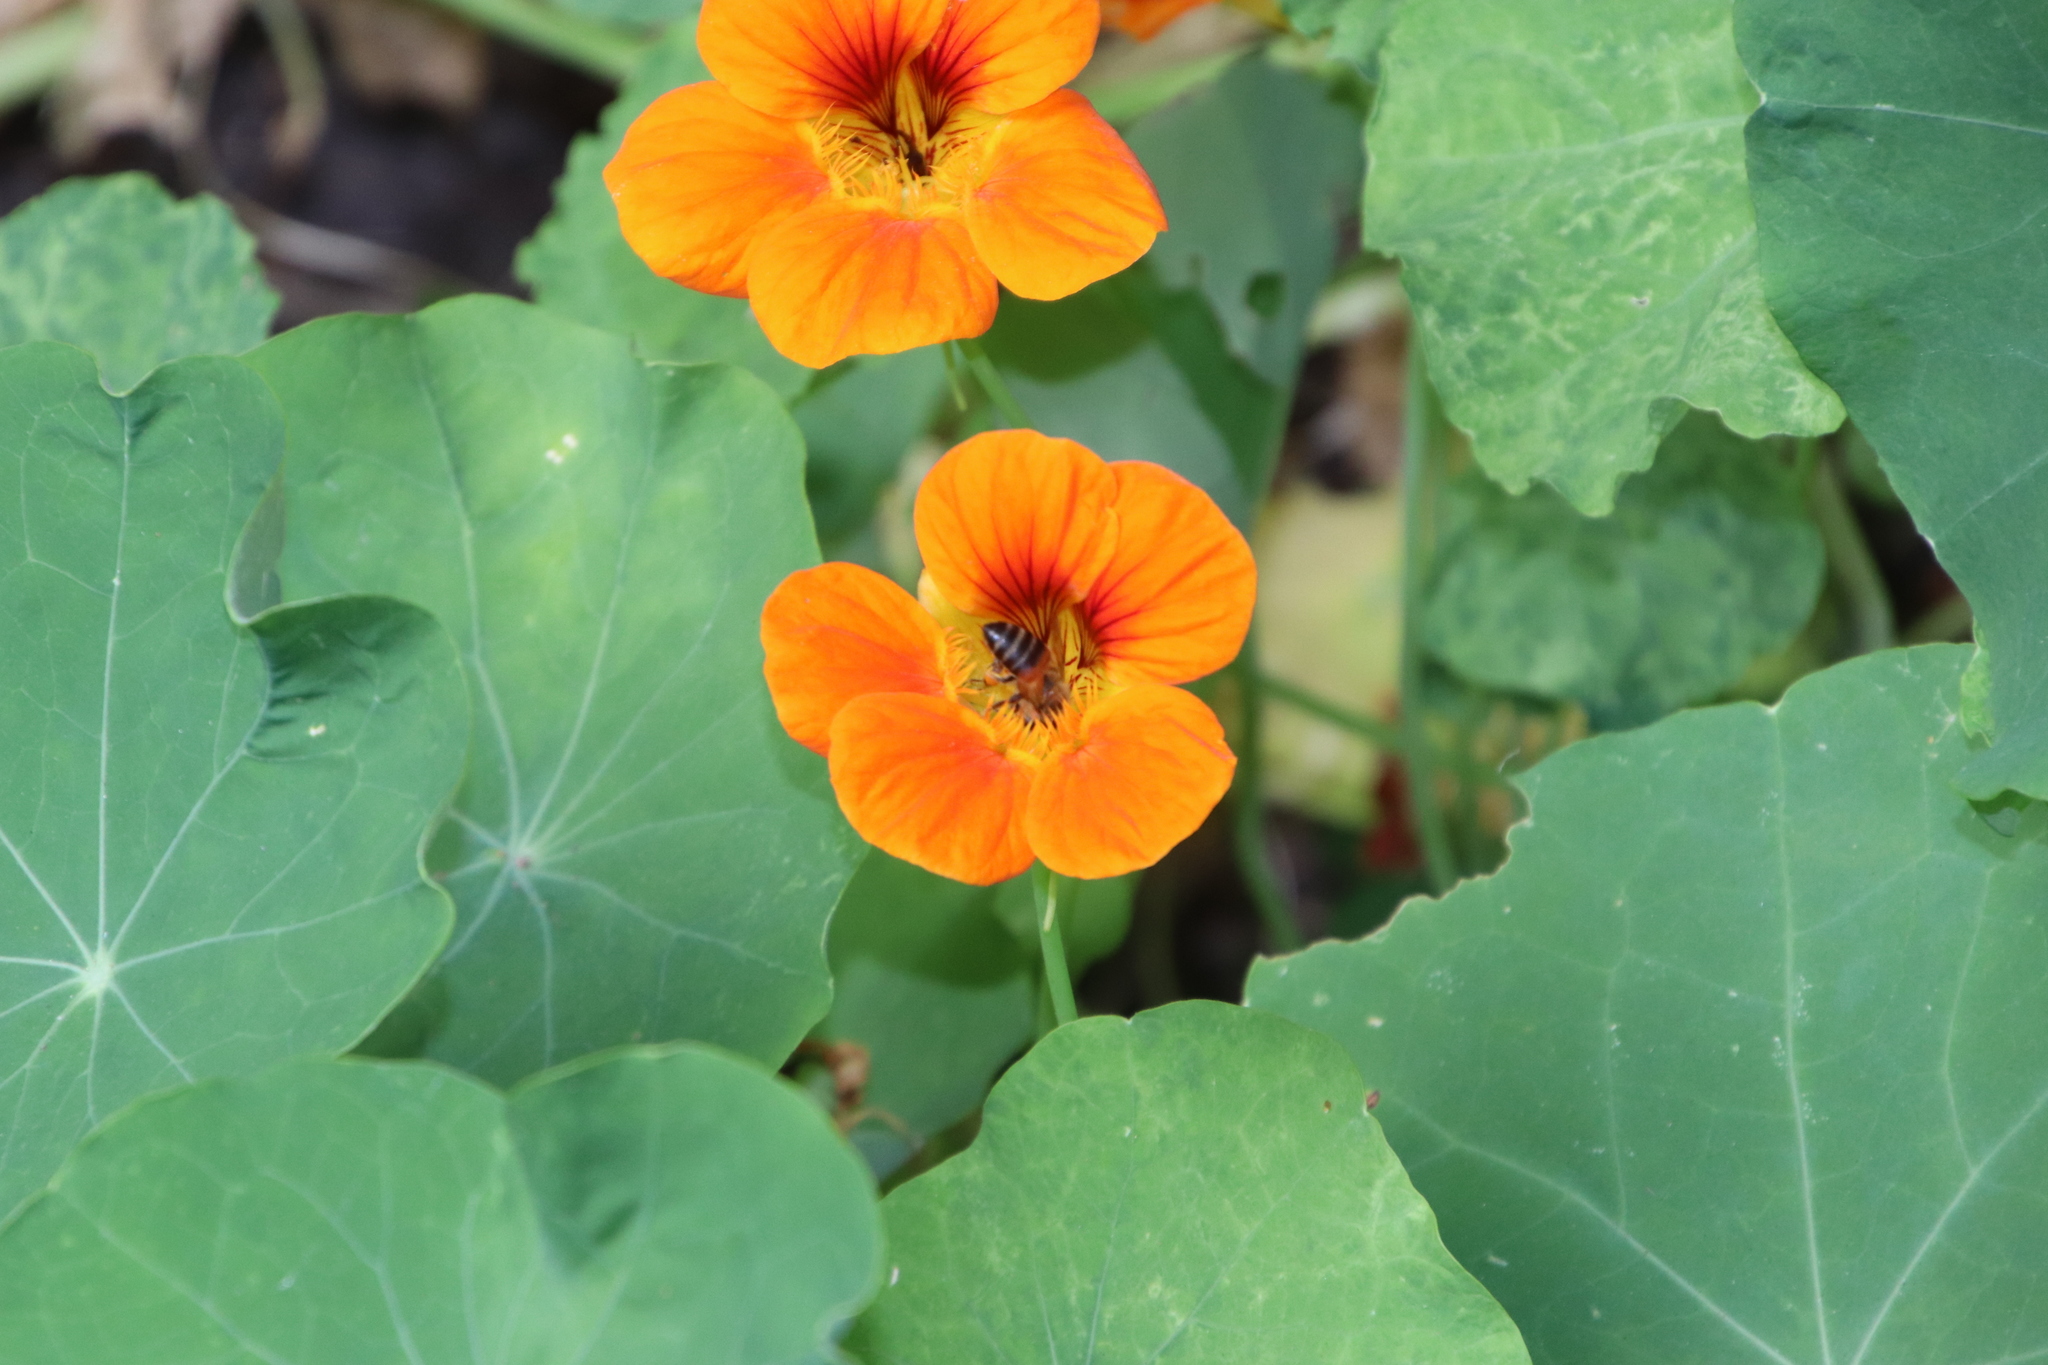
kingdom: Animalia
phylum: Arthropoda
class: Insecta
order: Hymenoptera
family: Apidae
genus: Apis
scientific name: Apis mellifera
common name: Honey bee
